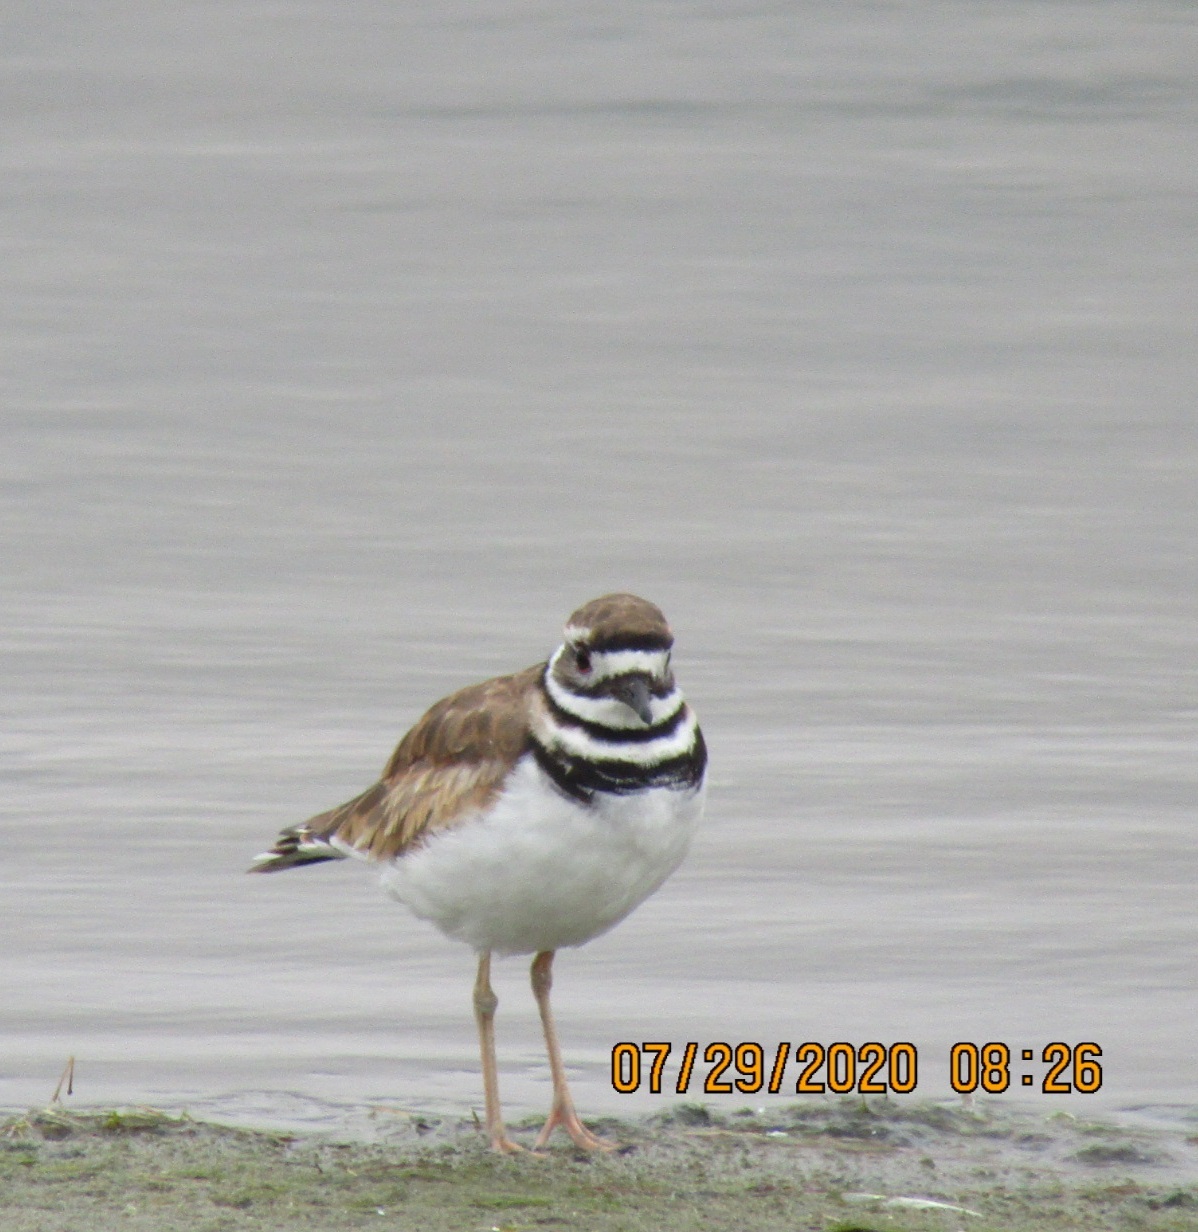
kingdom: Animalia
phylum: Chordata
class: Aves
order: Charadriiformes
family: Charadriidae
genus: Charadrius
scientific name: Charadrius vociferus
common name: Killdeer
